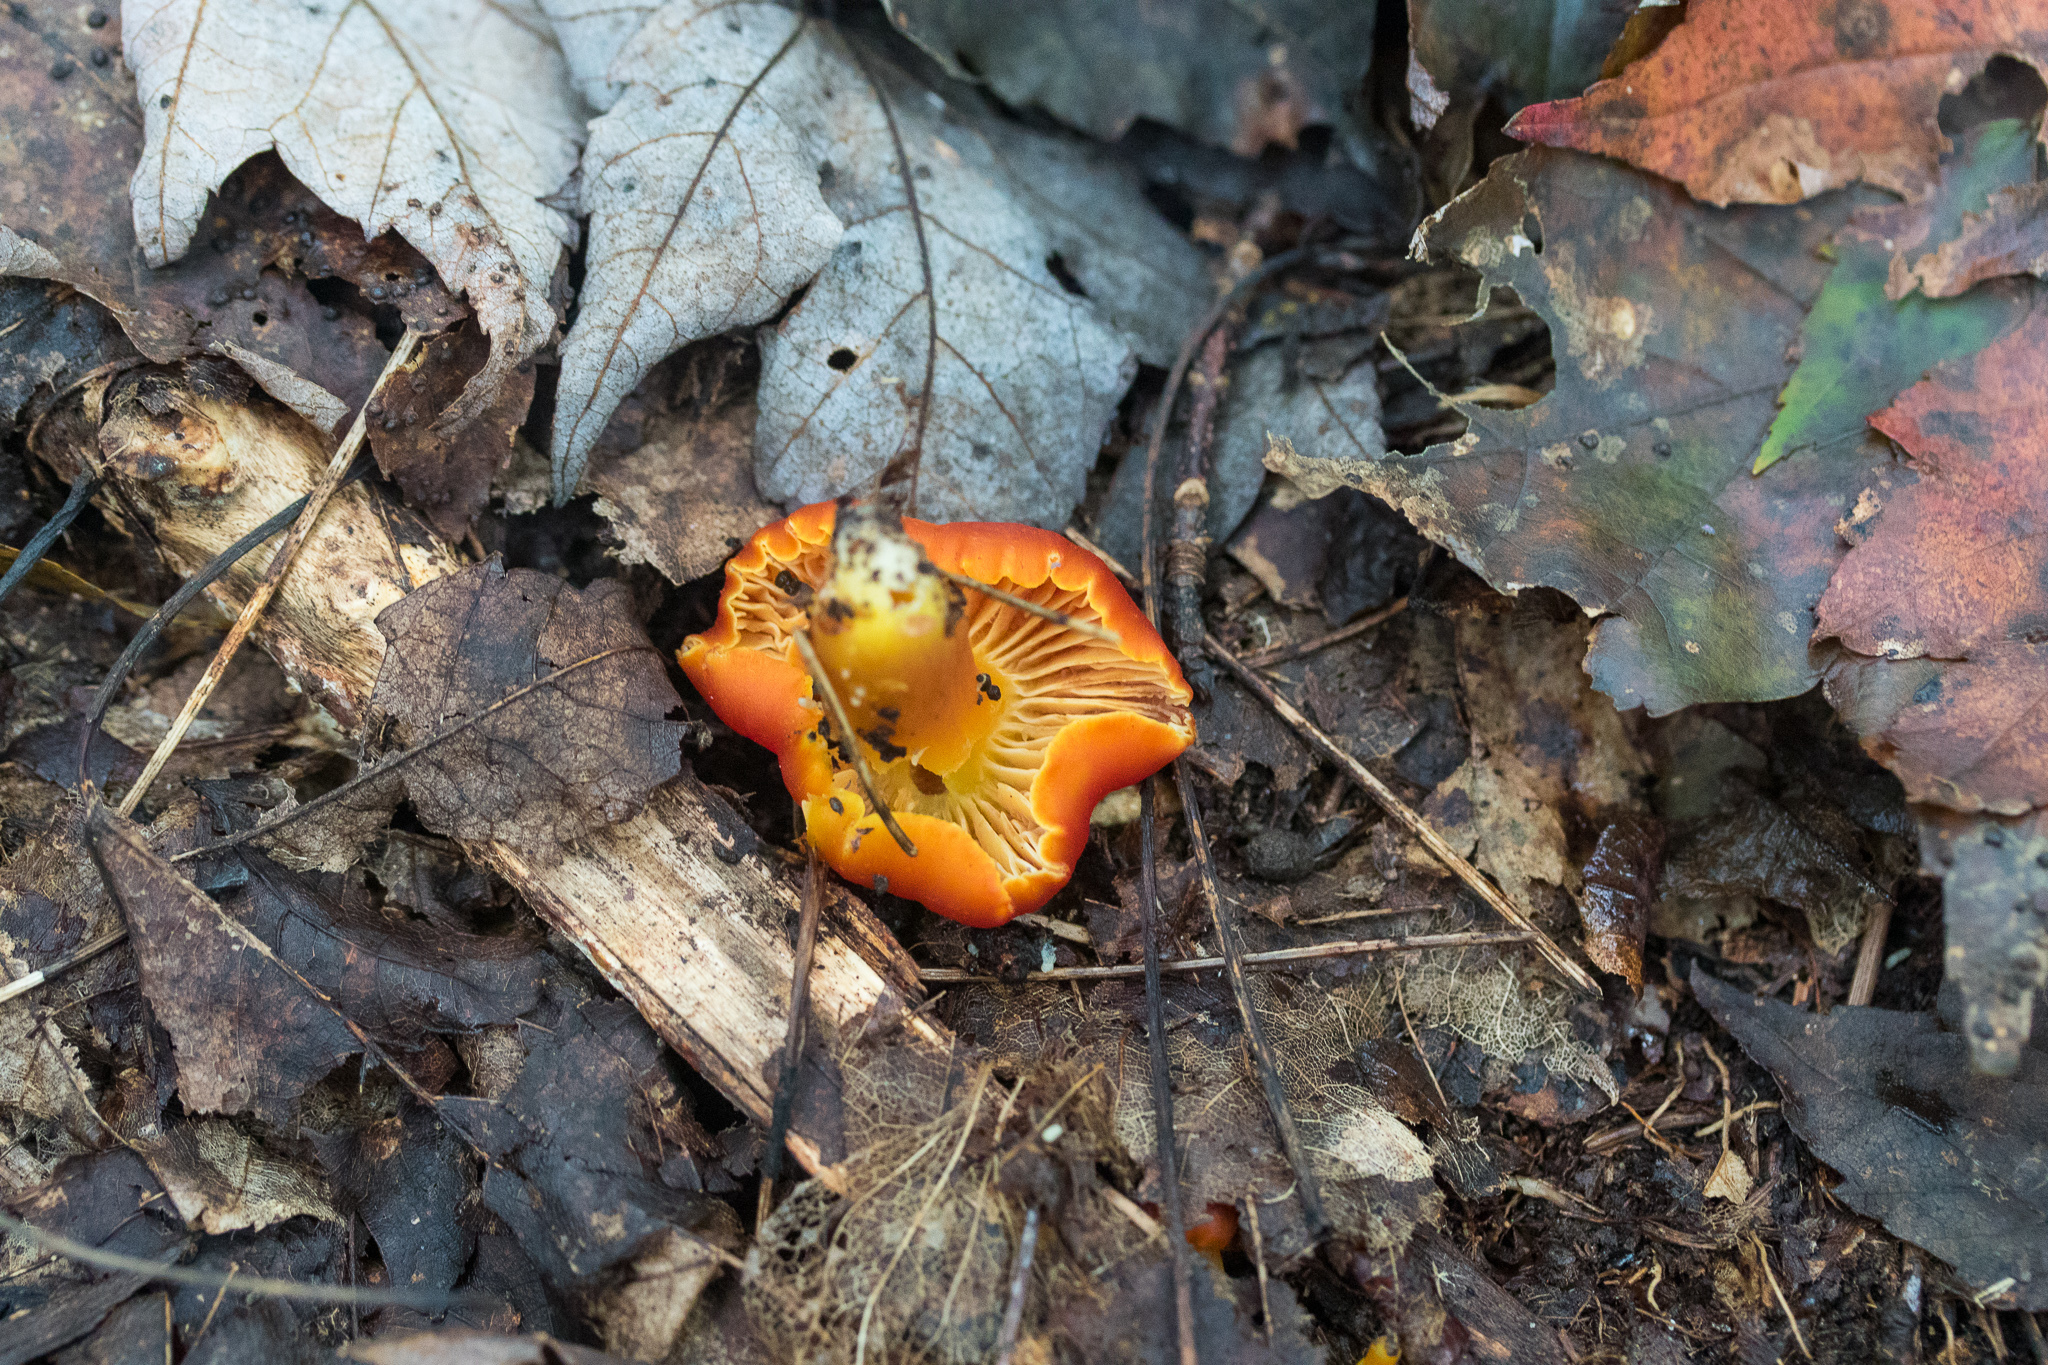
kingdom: Fungi
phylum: Basidiomycota
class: Agaricomycetes
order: Agaricales
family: Hygrophoraceae
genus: Hygrocybe
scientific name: Hygrocybe miniata
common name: Vermilion waxcap
